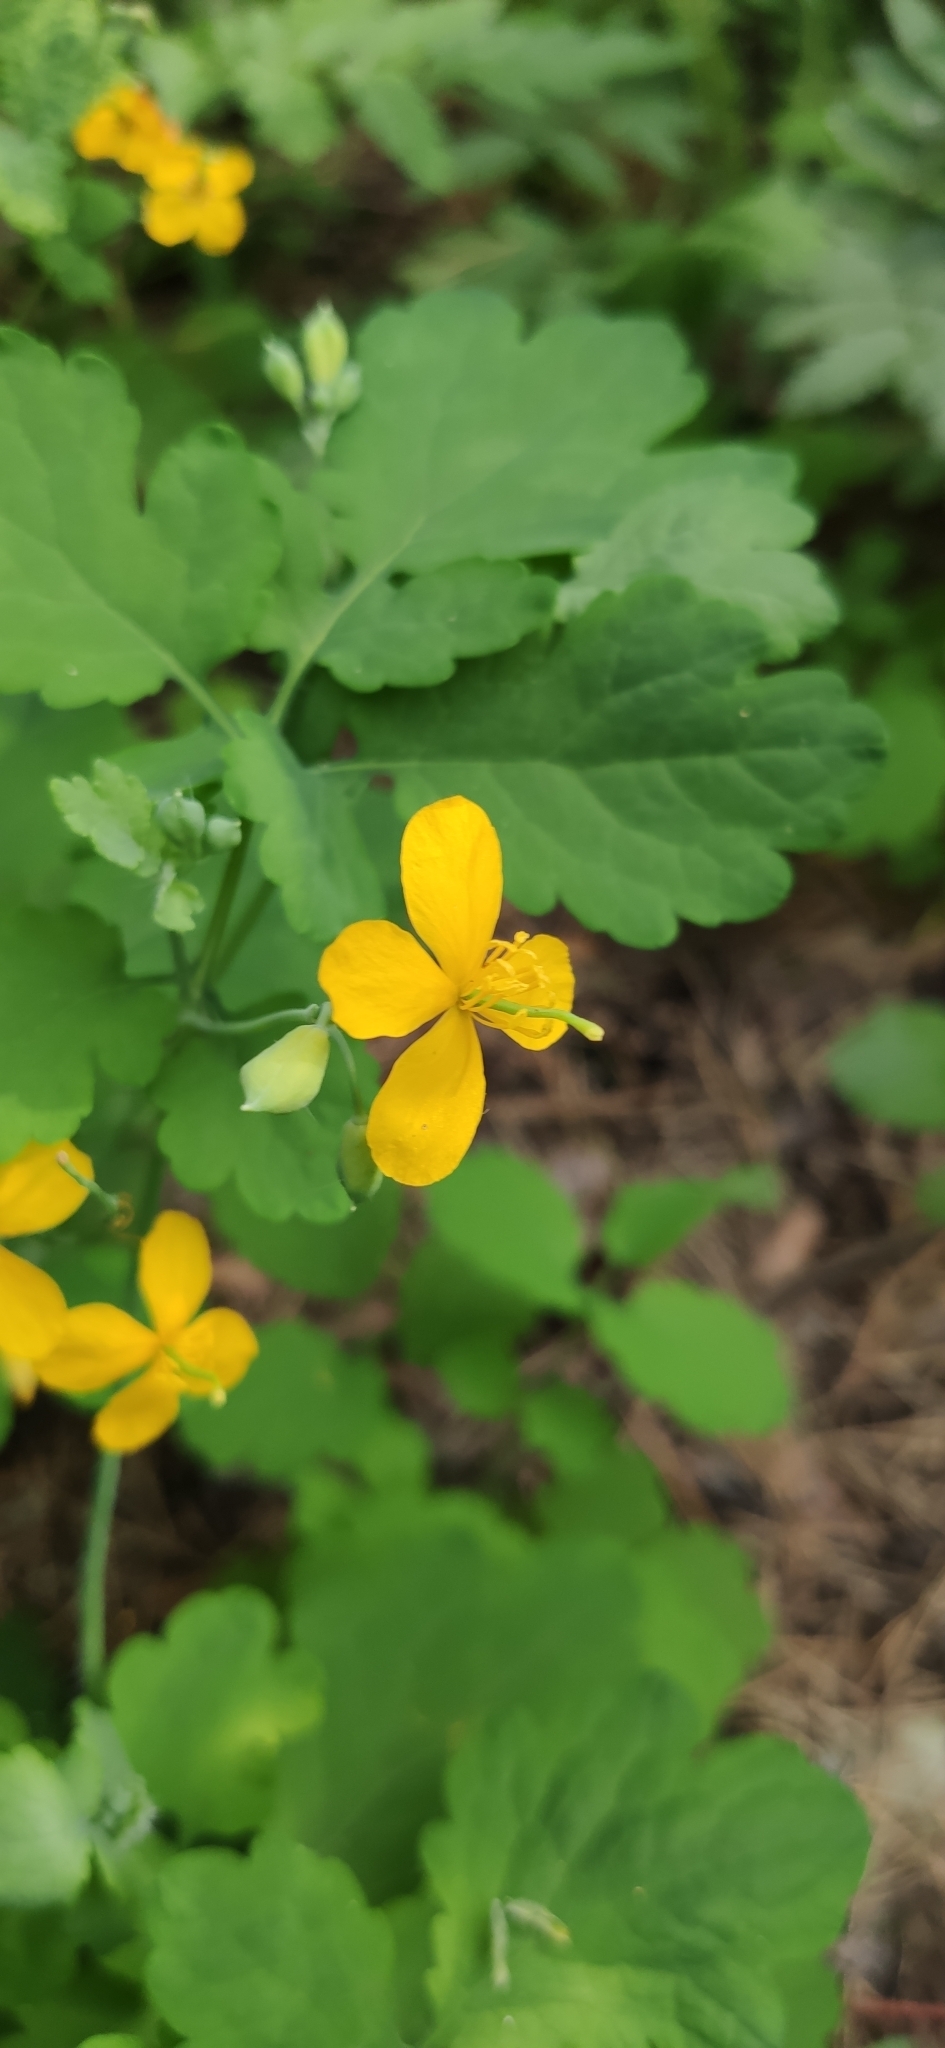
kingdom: Plantae
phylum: Tracheophyta
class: Magnoliopsida
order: Ranunculales
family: Papaveraceae
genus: Chelidonium
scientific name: Chelidonium majus
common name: Greater celandine
